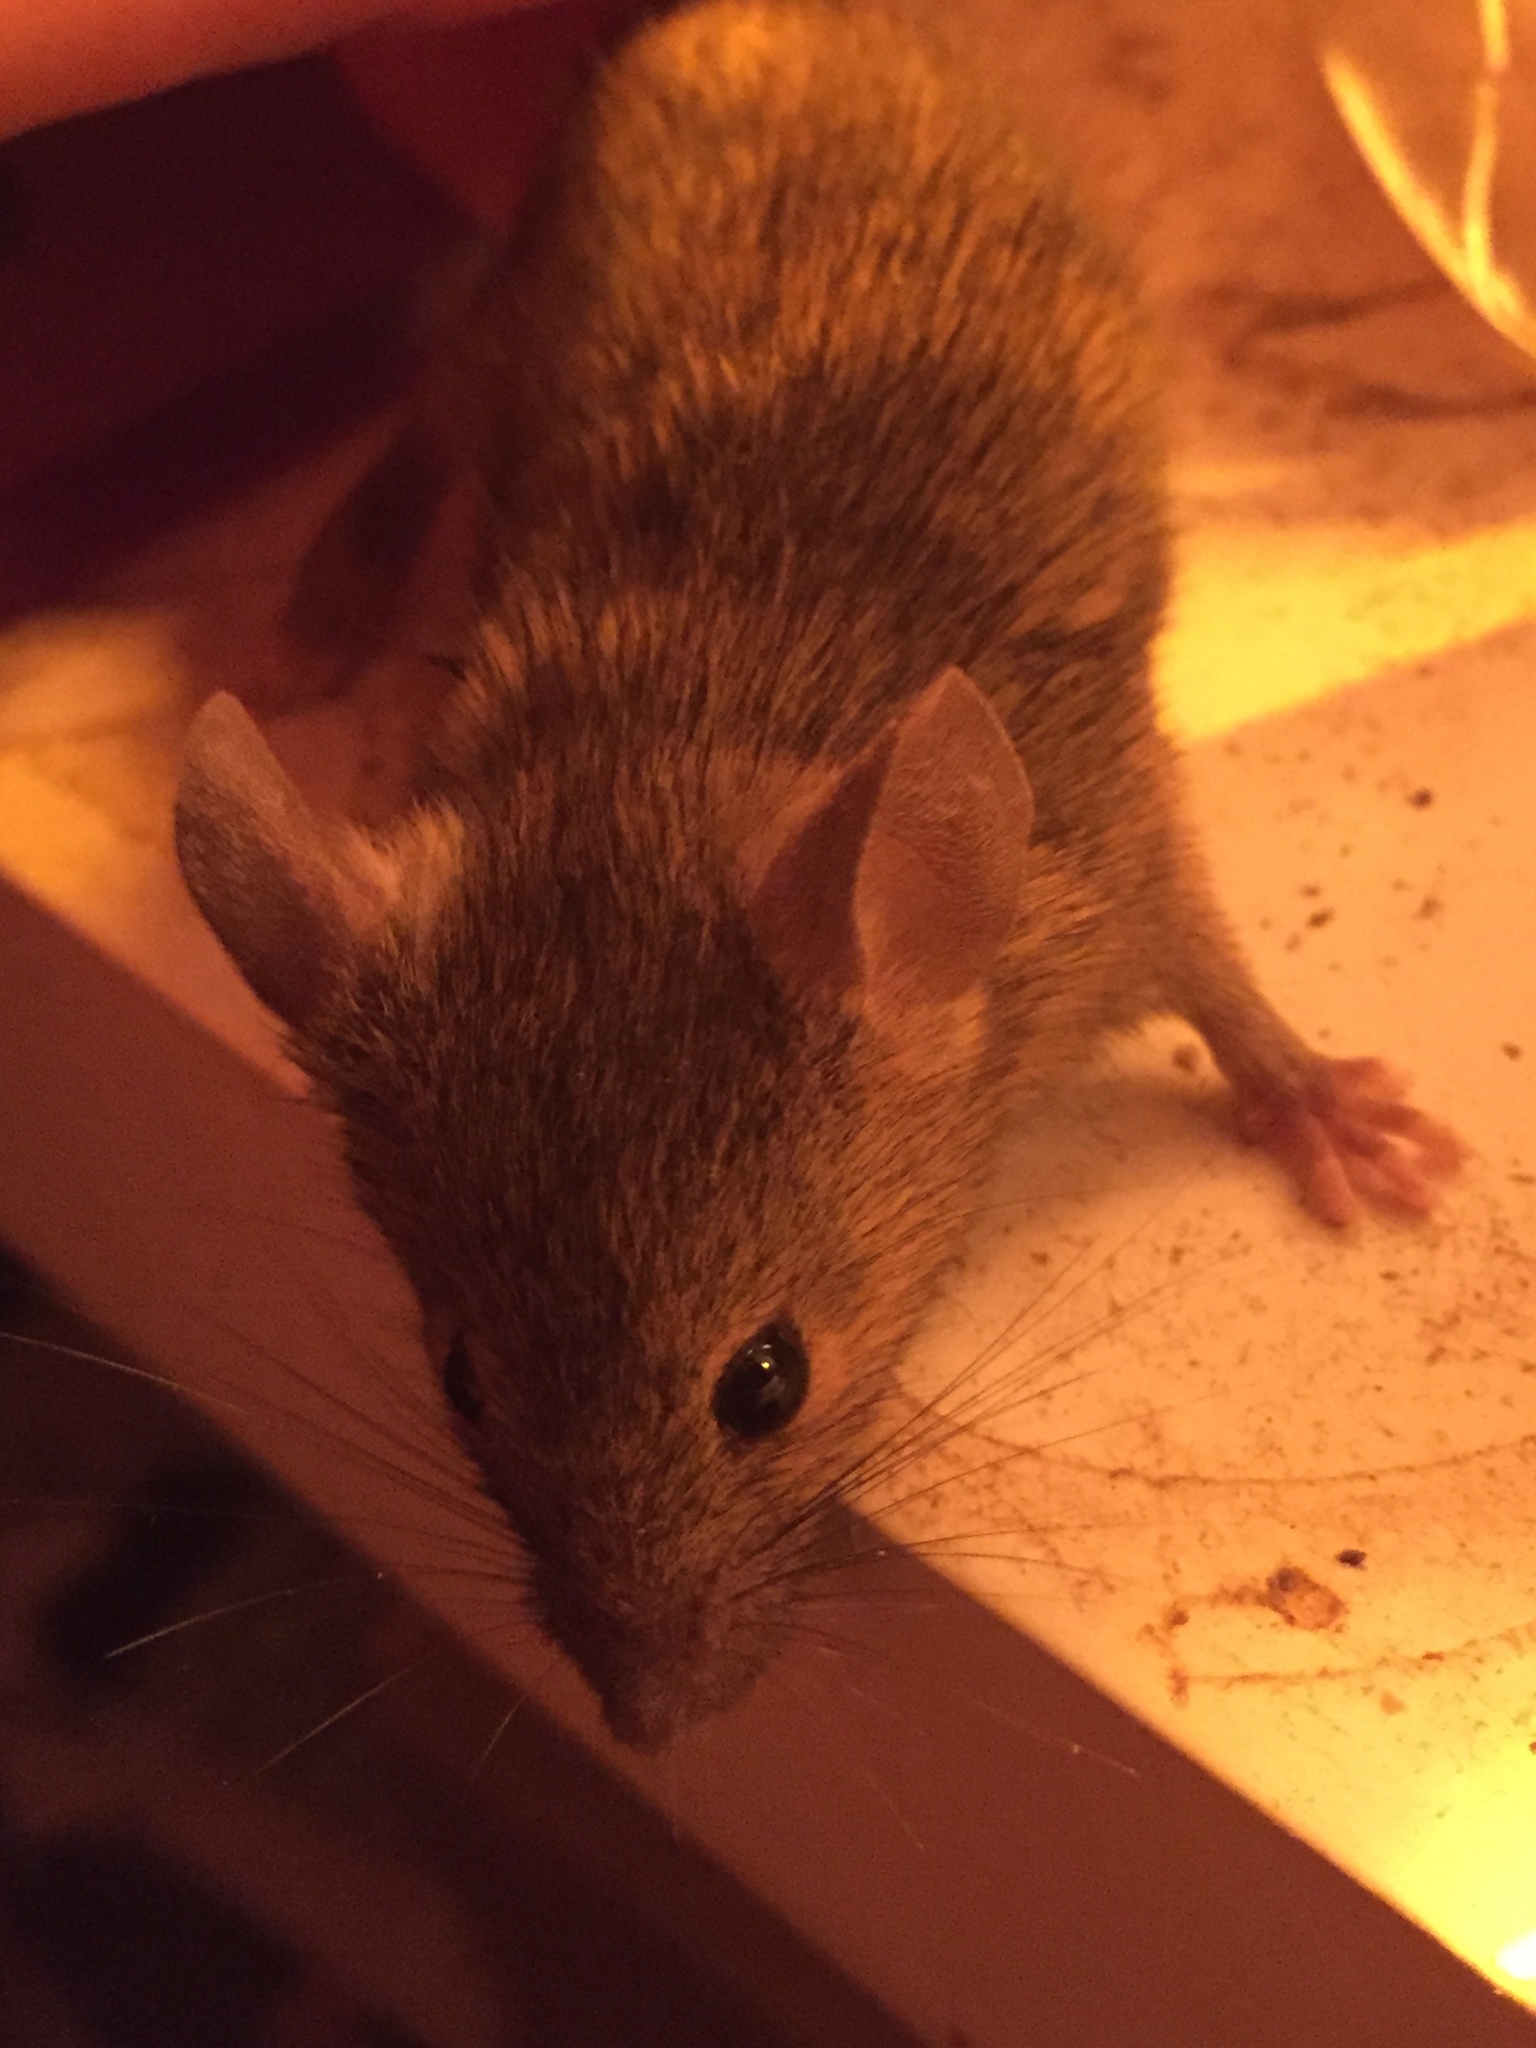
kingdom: Animalia
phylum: Chordata
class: Mammalia
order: Rodentia
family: Muridae
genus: Mus
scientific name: Mus musculus
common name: House mouse
